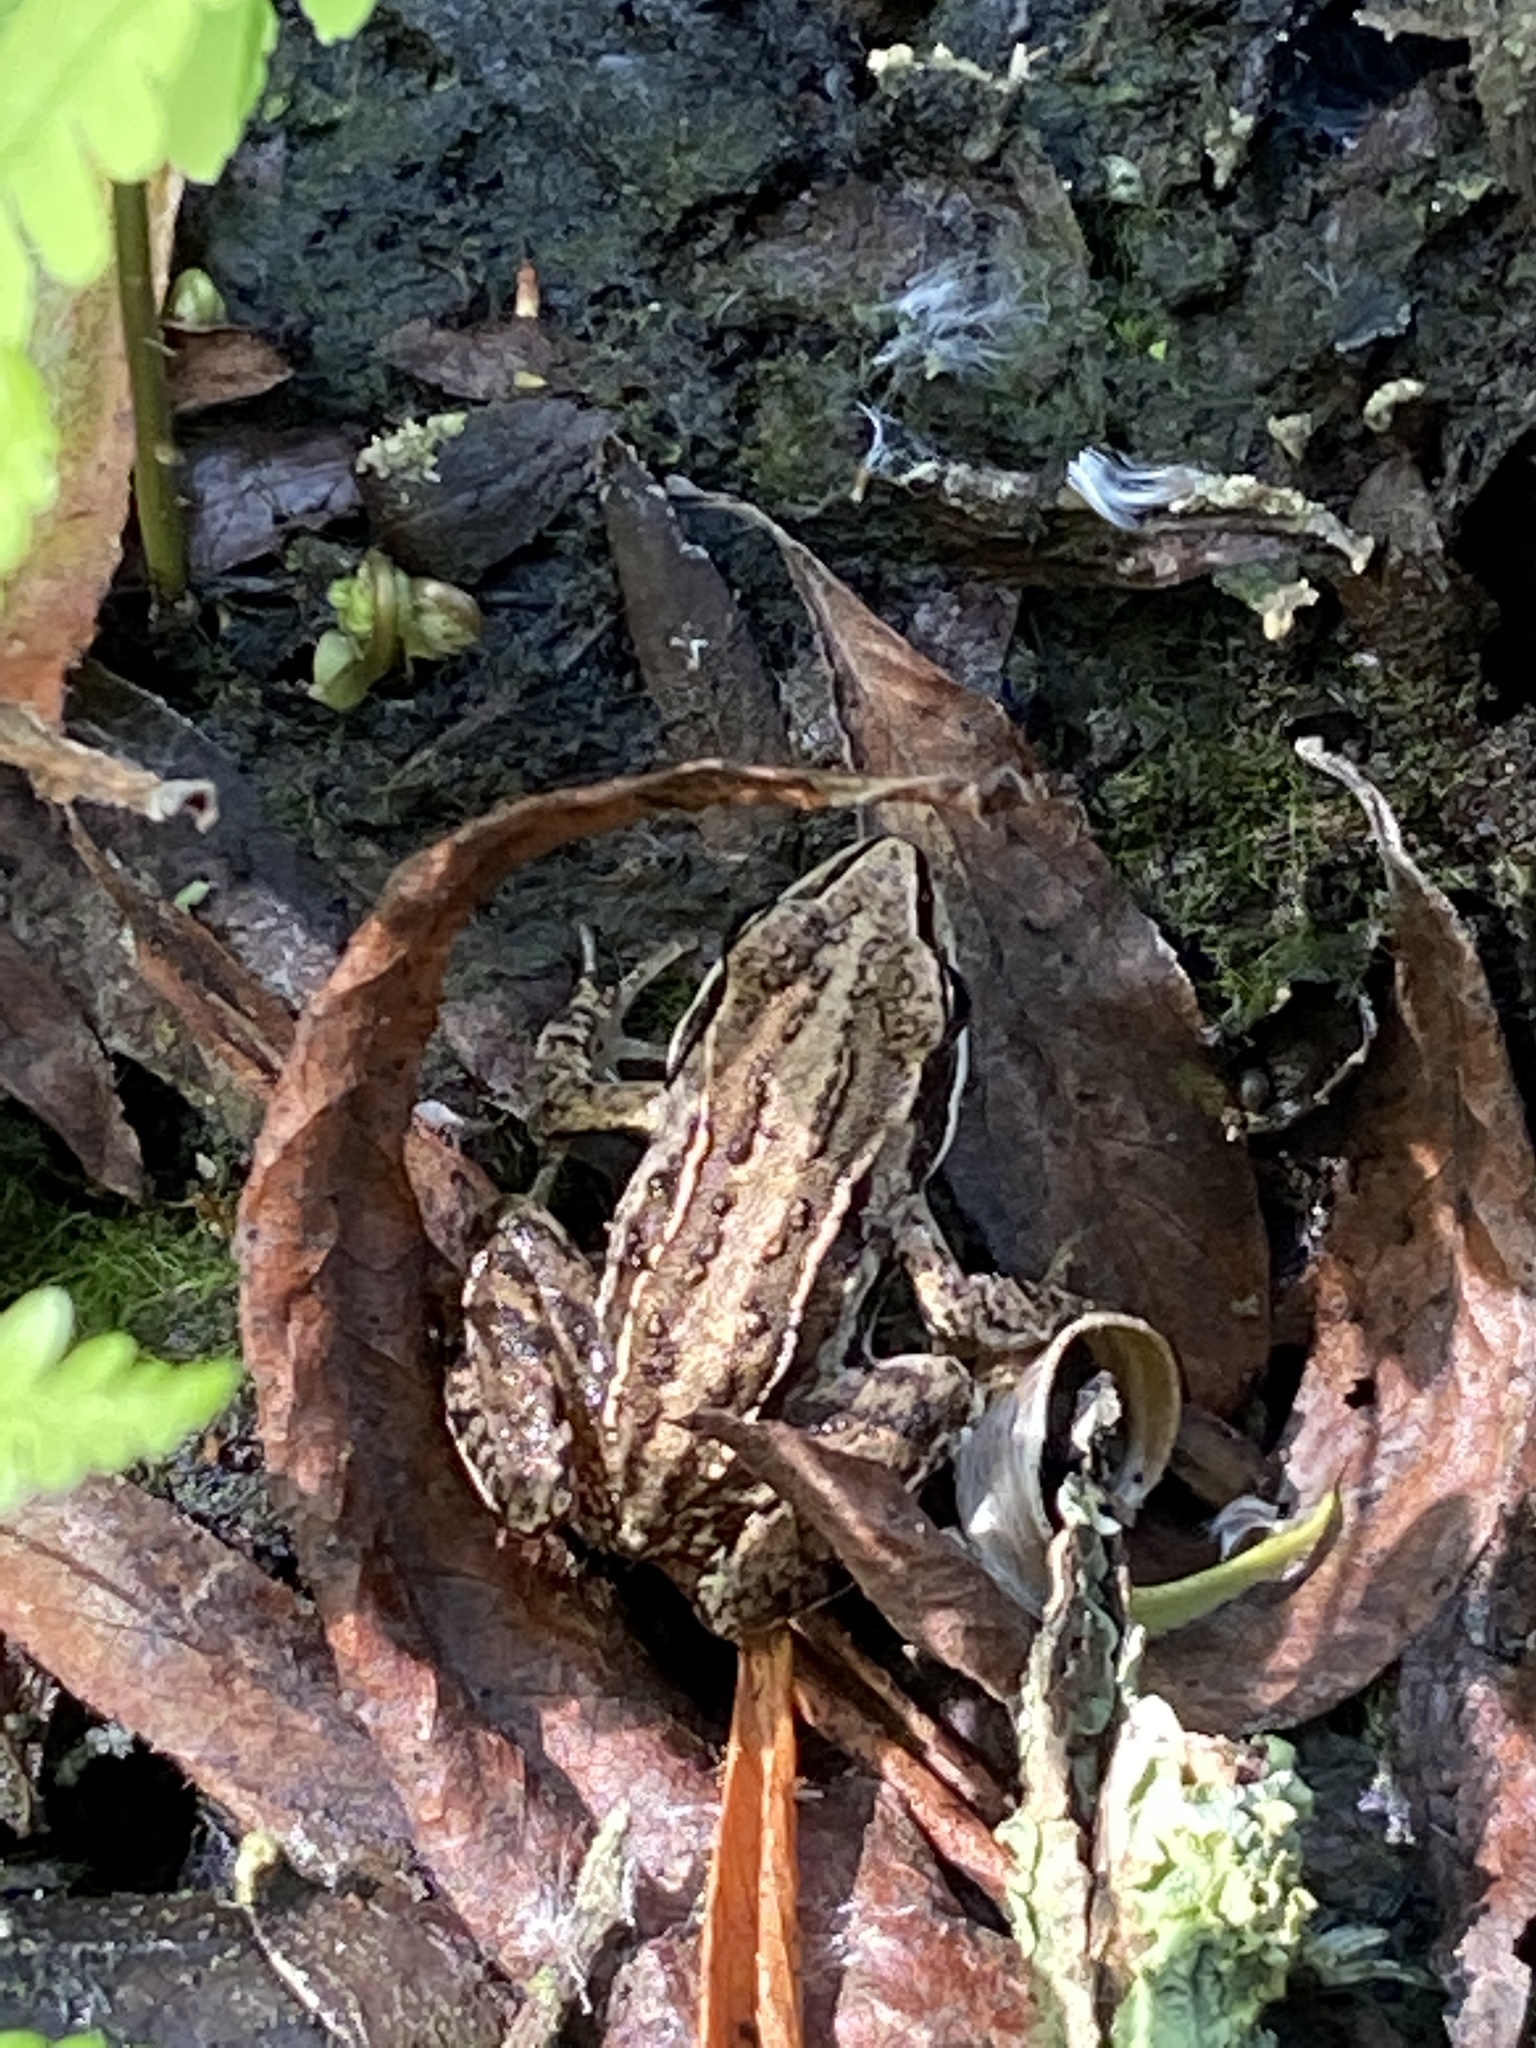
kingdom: Animalia
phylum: Chordata
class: Amphibia
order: Anura
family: Ranidae
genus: Rana
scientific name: Rana arvalis
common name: Moor frog
